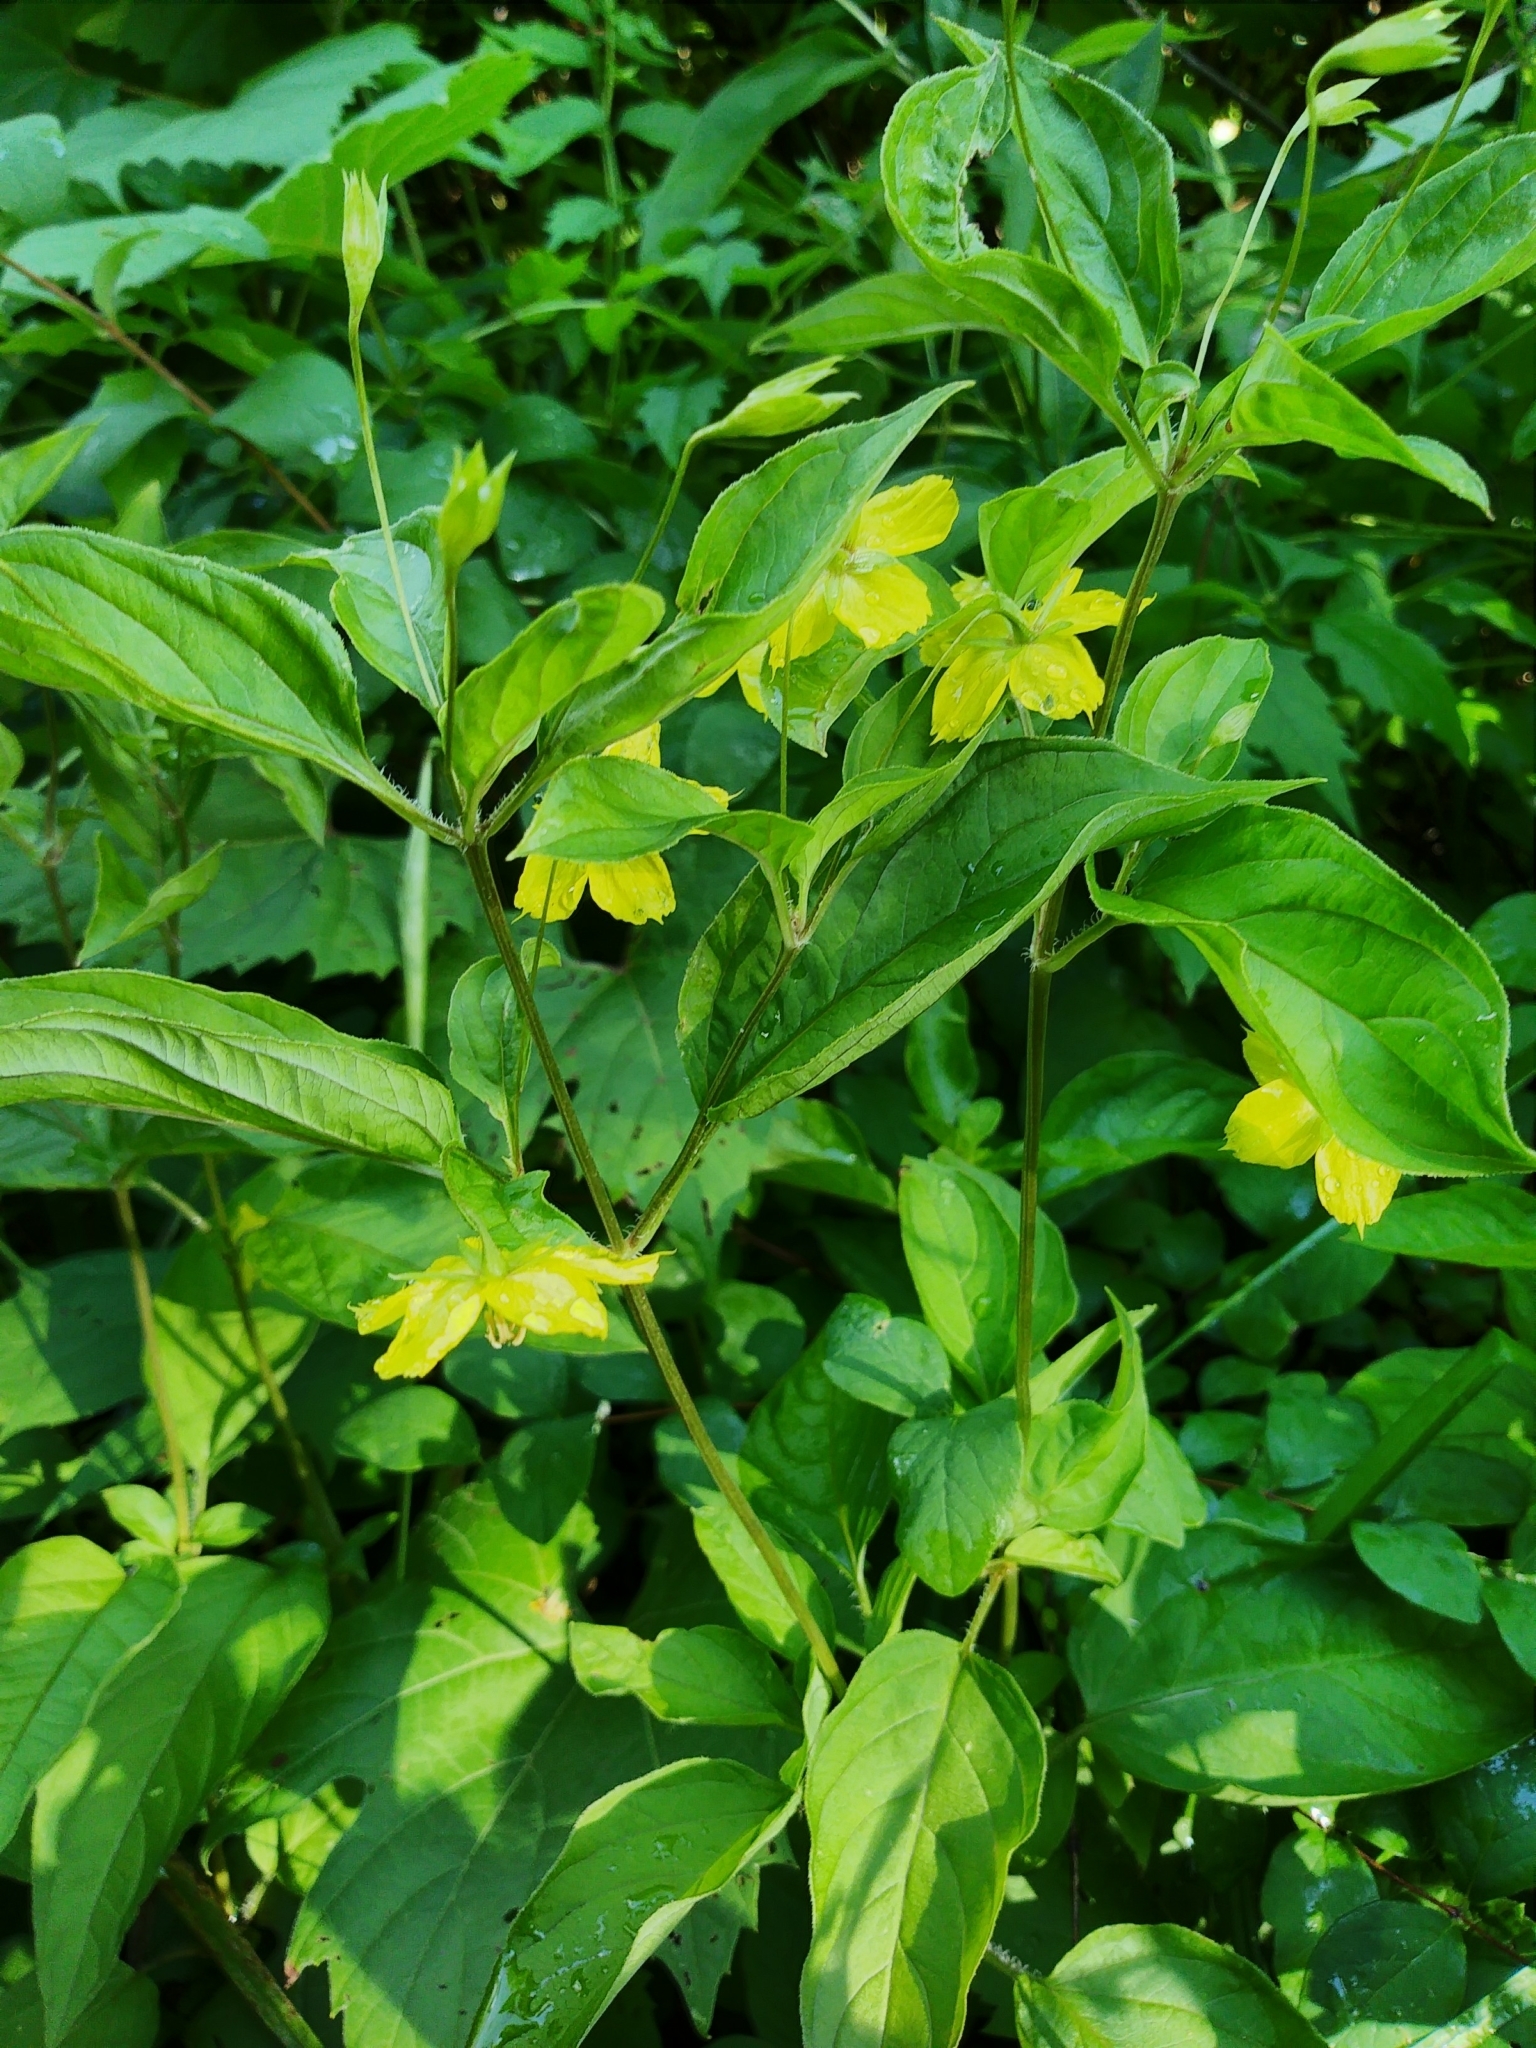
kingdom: Plantae
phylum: Tracheophyta
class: Magnoliopsida
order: Ericales
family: Primulaceae
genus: Lysimachia
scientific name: Lysimachia ciliata
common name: Fringed loosestrife
